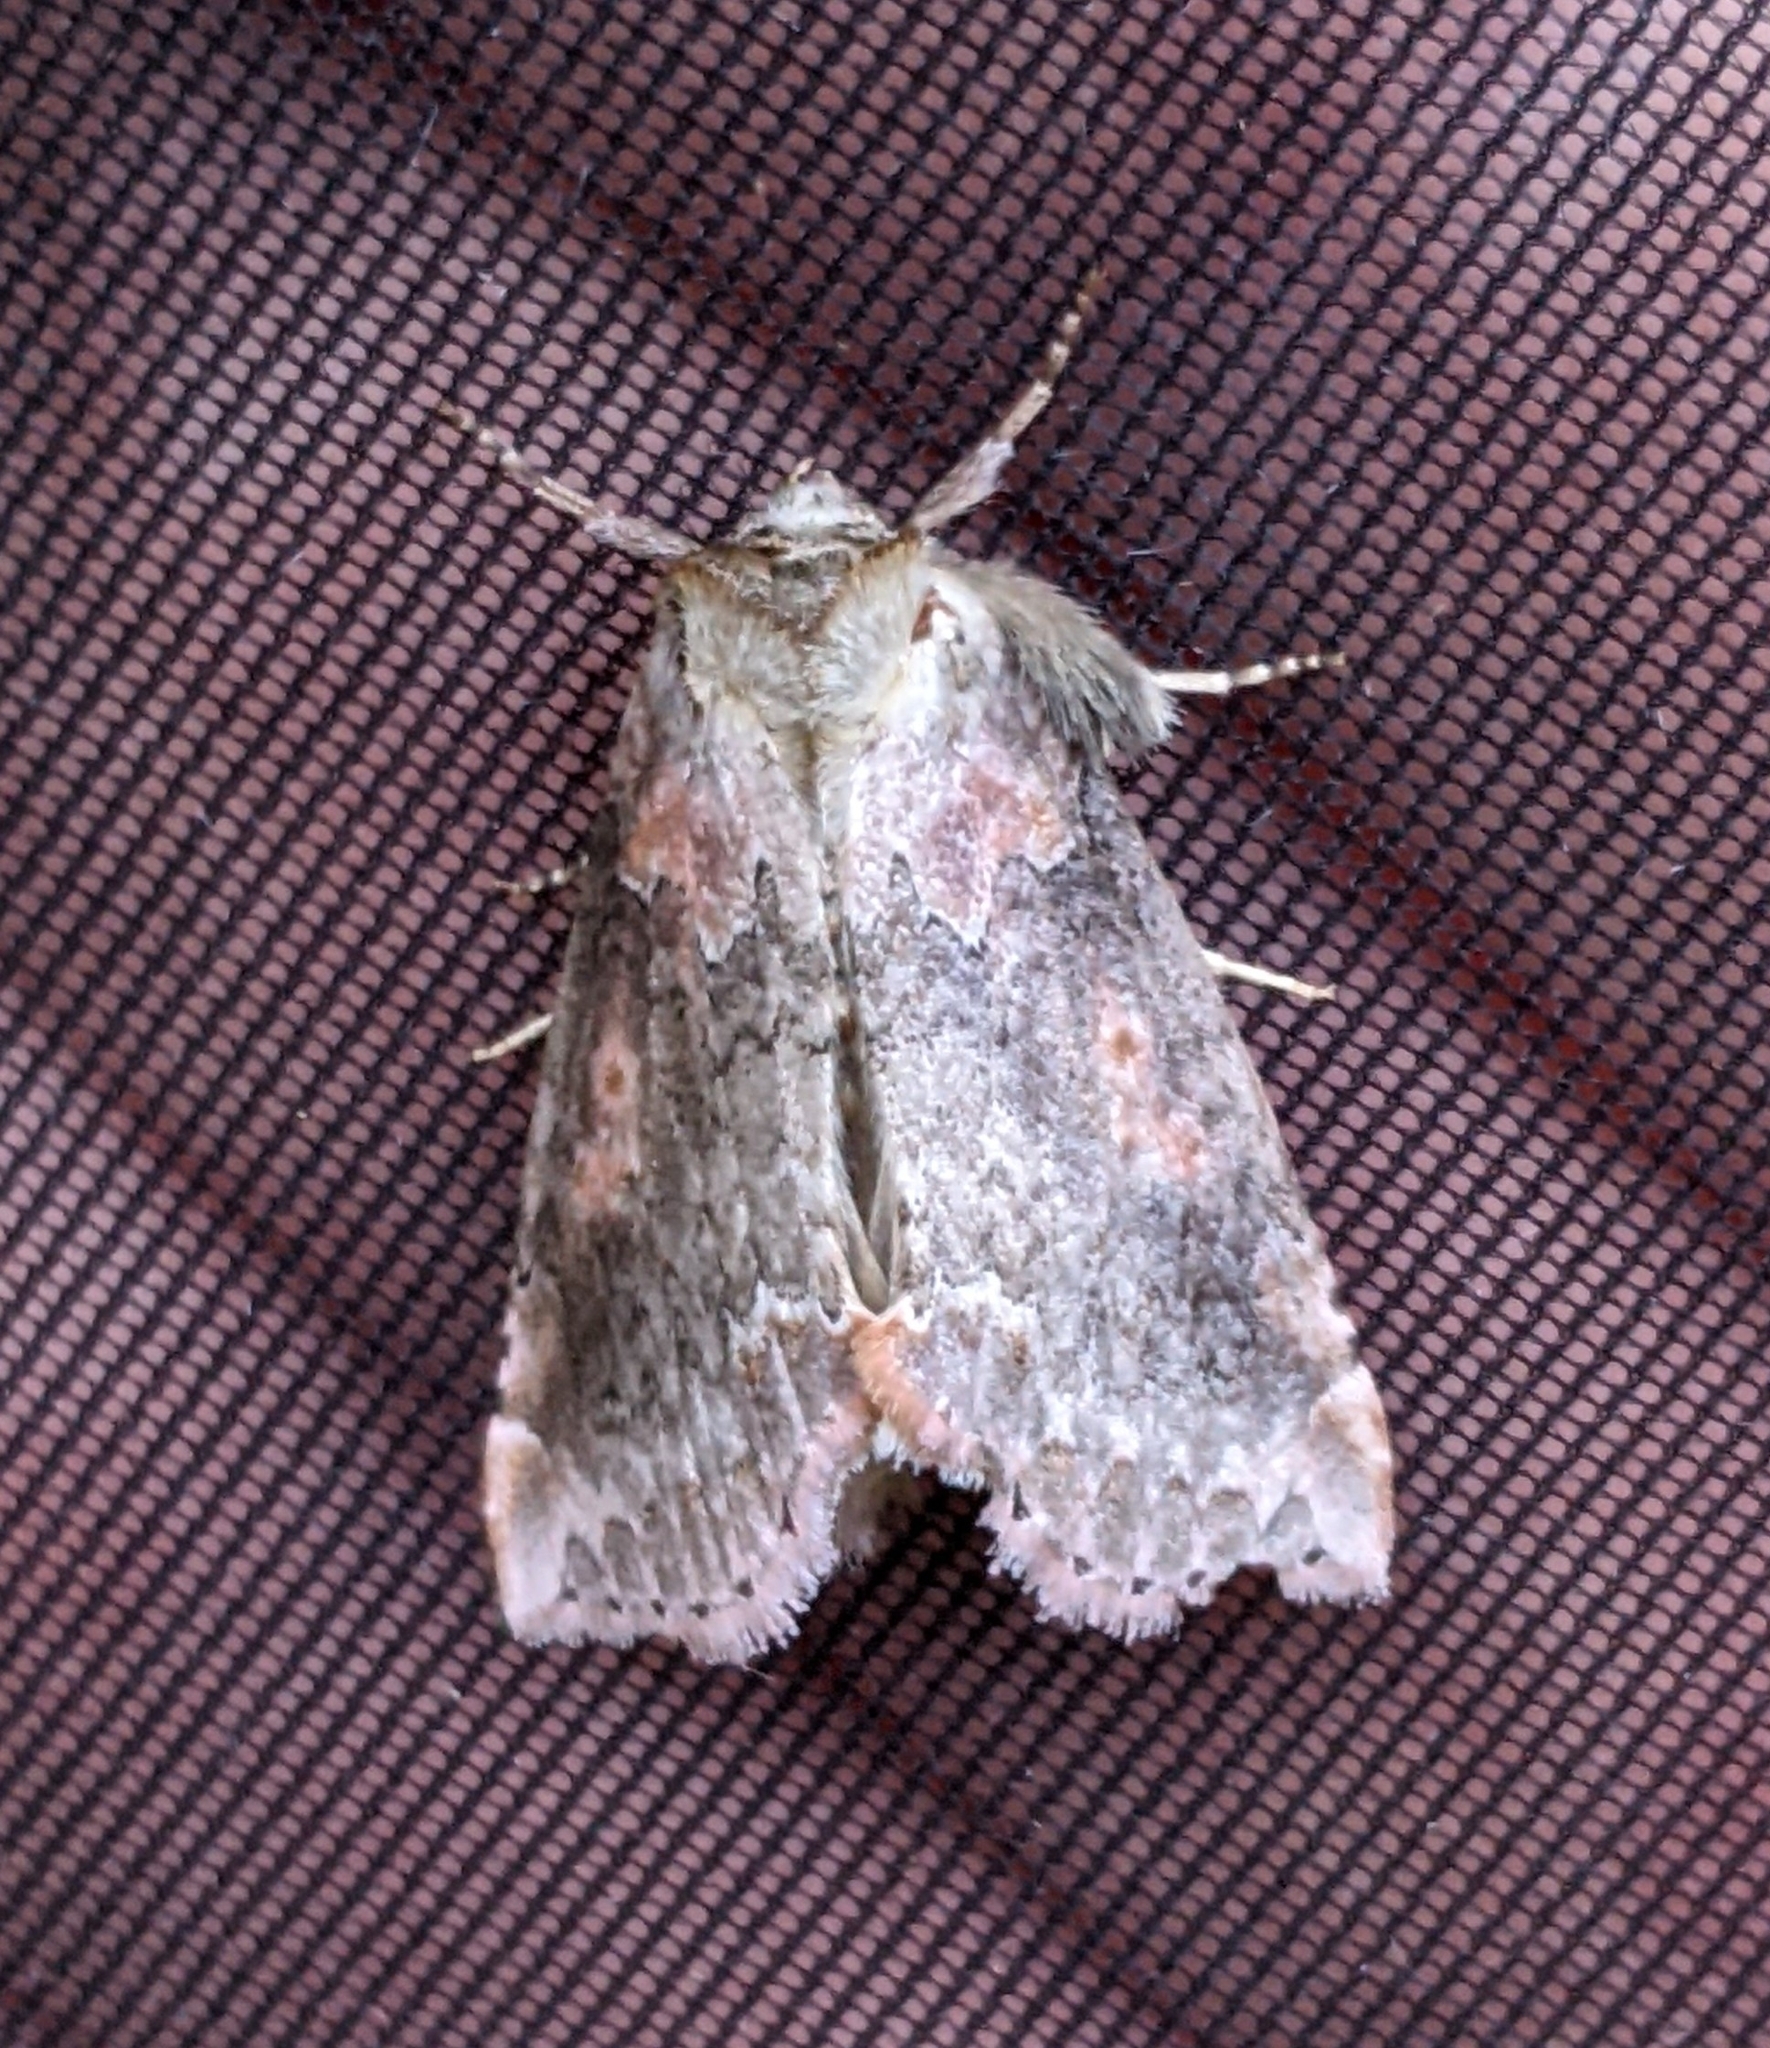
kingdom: Animalia
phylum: Arthropoda
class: Insecta
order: Lepidoptera
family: Drepanidae
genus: Pseudothyatira
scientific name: Pseudothyatira cymatophoroides
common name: Tufted thyatirid moth
